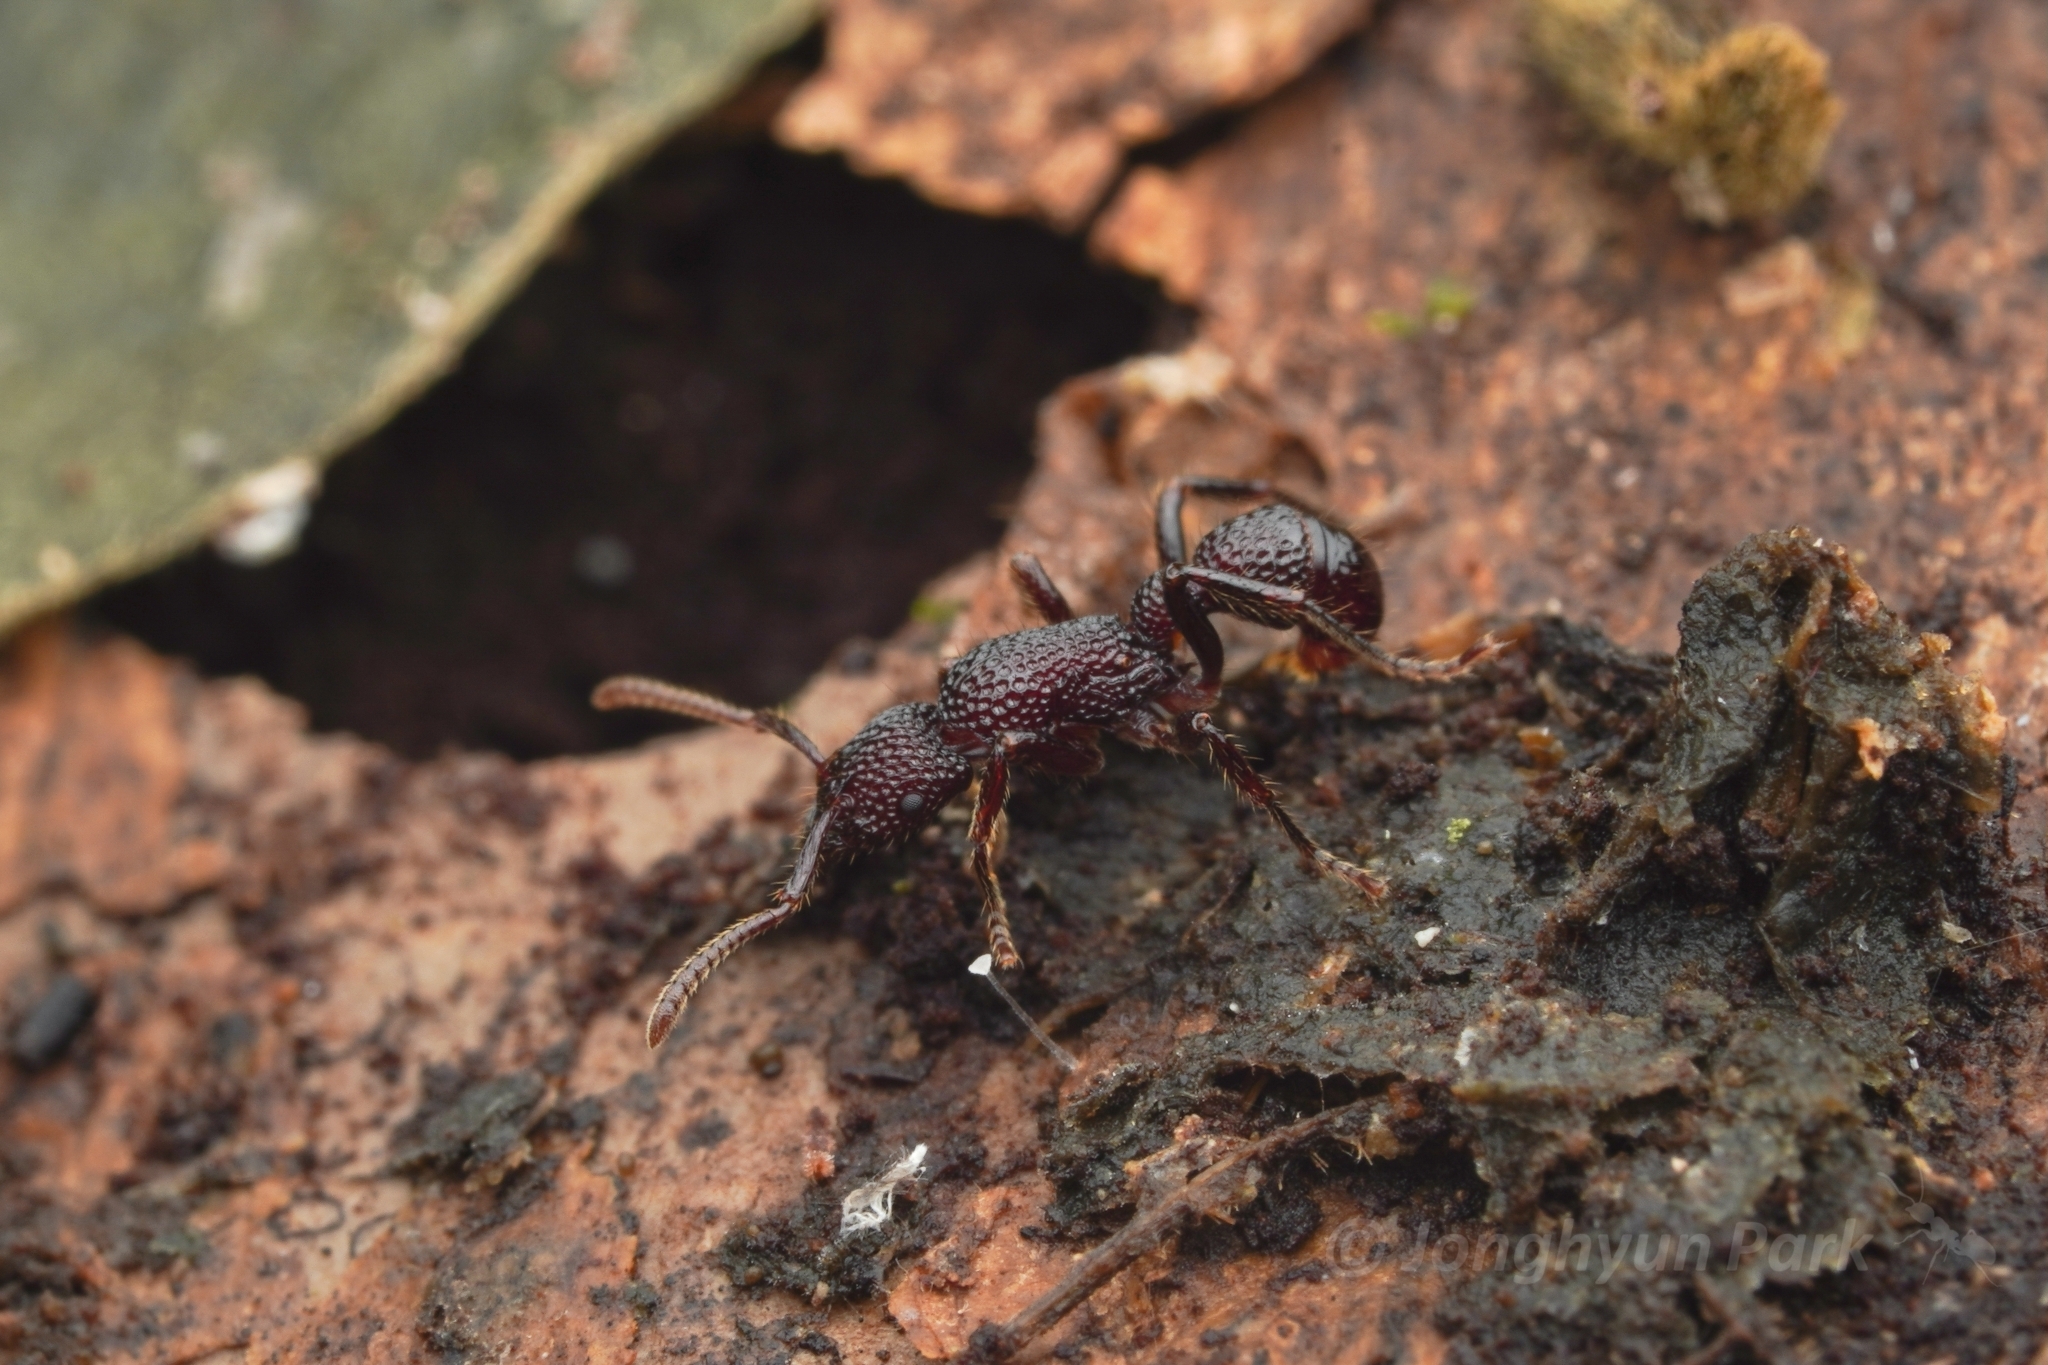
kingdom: Animalia
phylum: Arthropoda
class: Insecta
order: Hymenoptera
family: Formicidae
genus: Stictoponera
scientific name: Stictoponera
